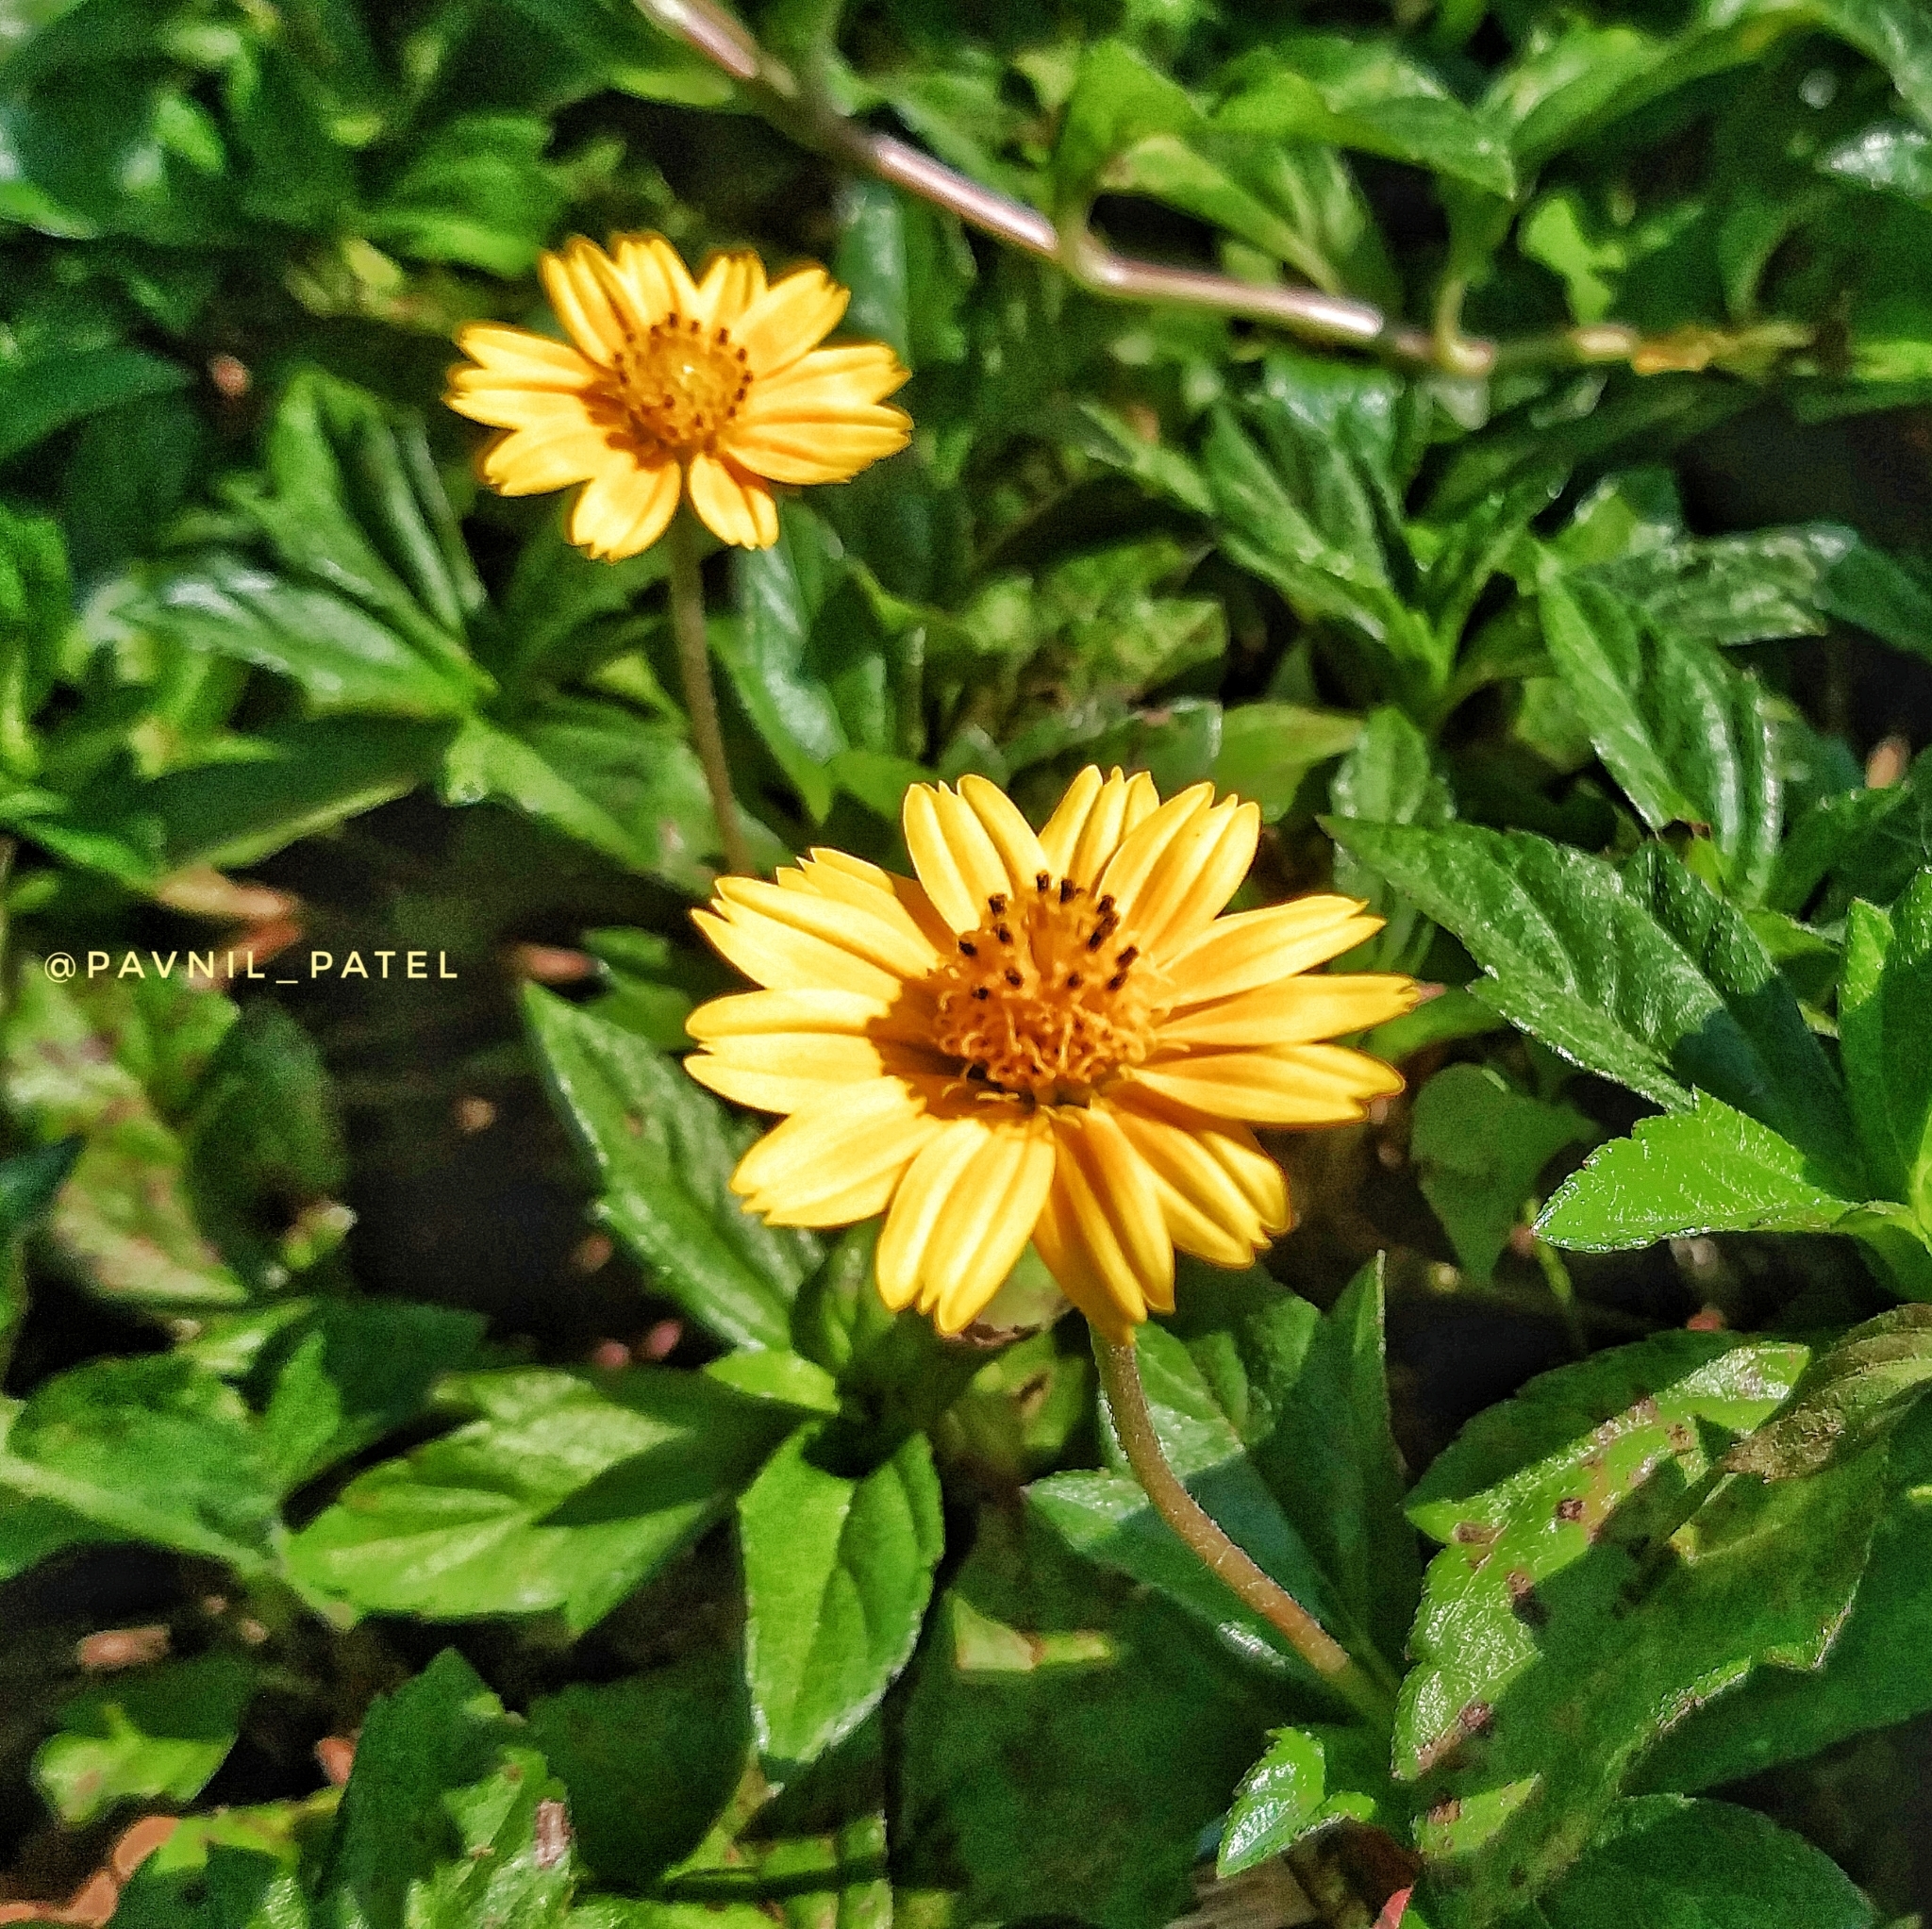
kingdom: Plantae
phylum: Tracheophyta
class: Magnoliopsida
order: Asterales
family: Asteraceae
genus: Sphagneticola
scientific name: Sphagneticola trilobata
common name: Bay biscayne creeping-oxeye
